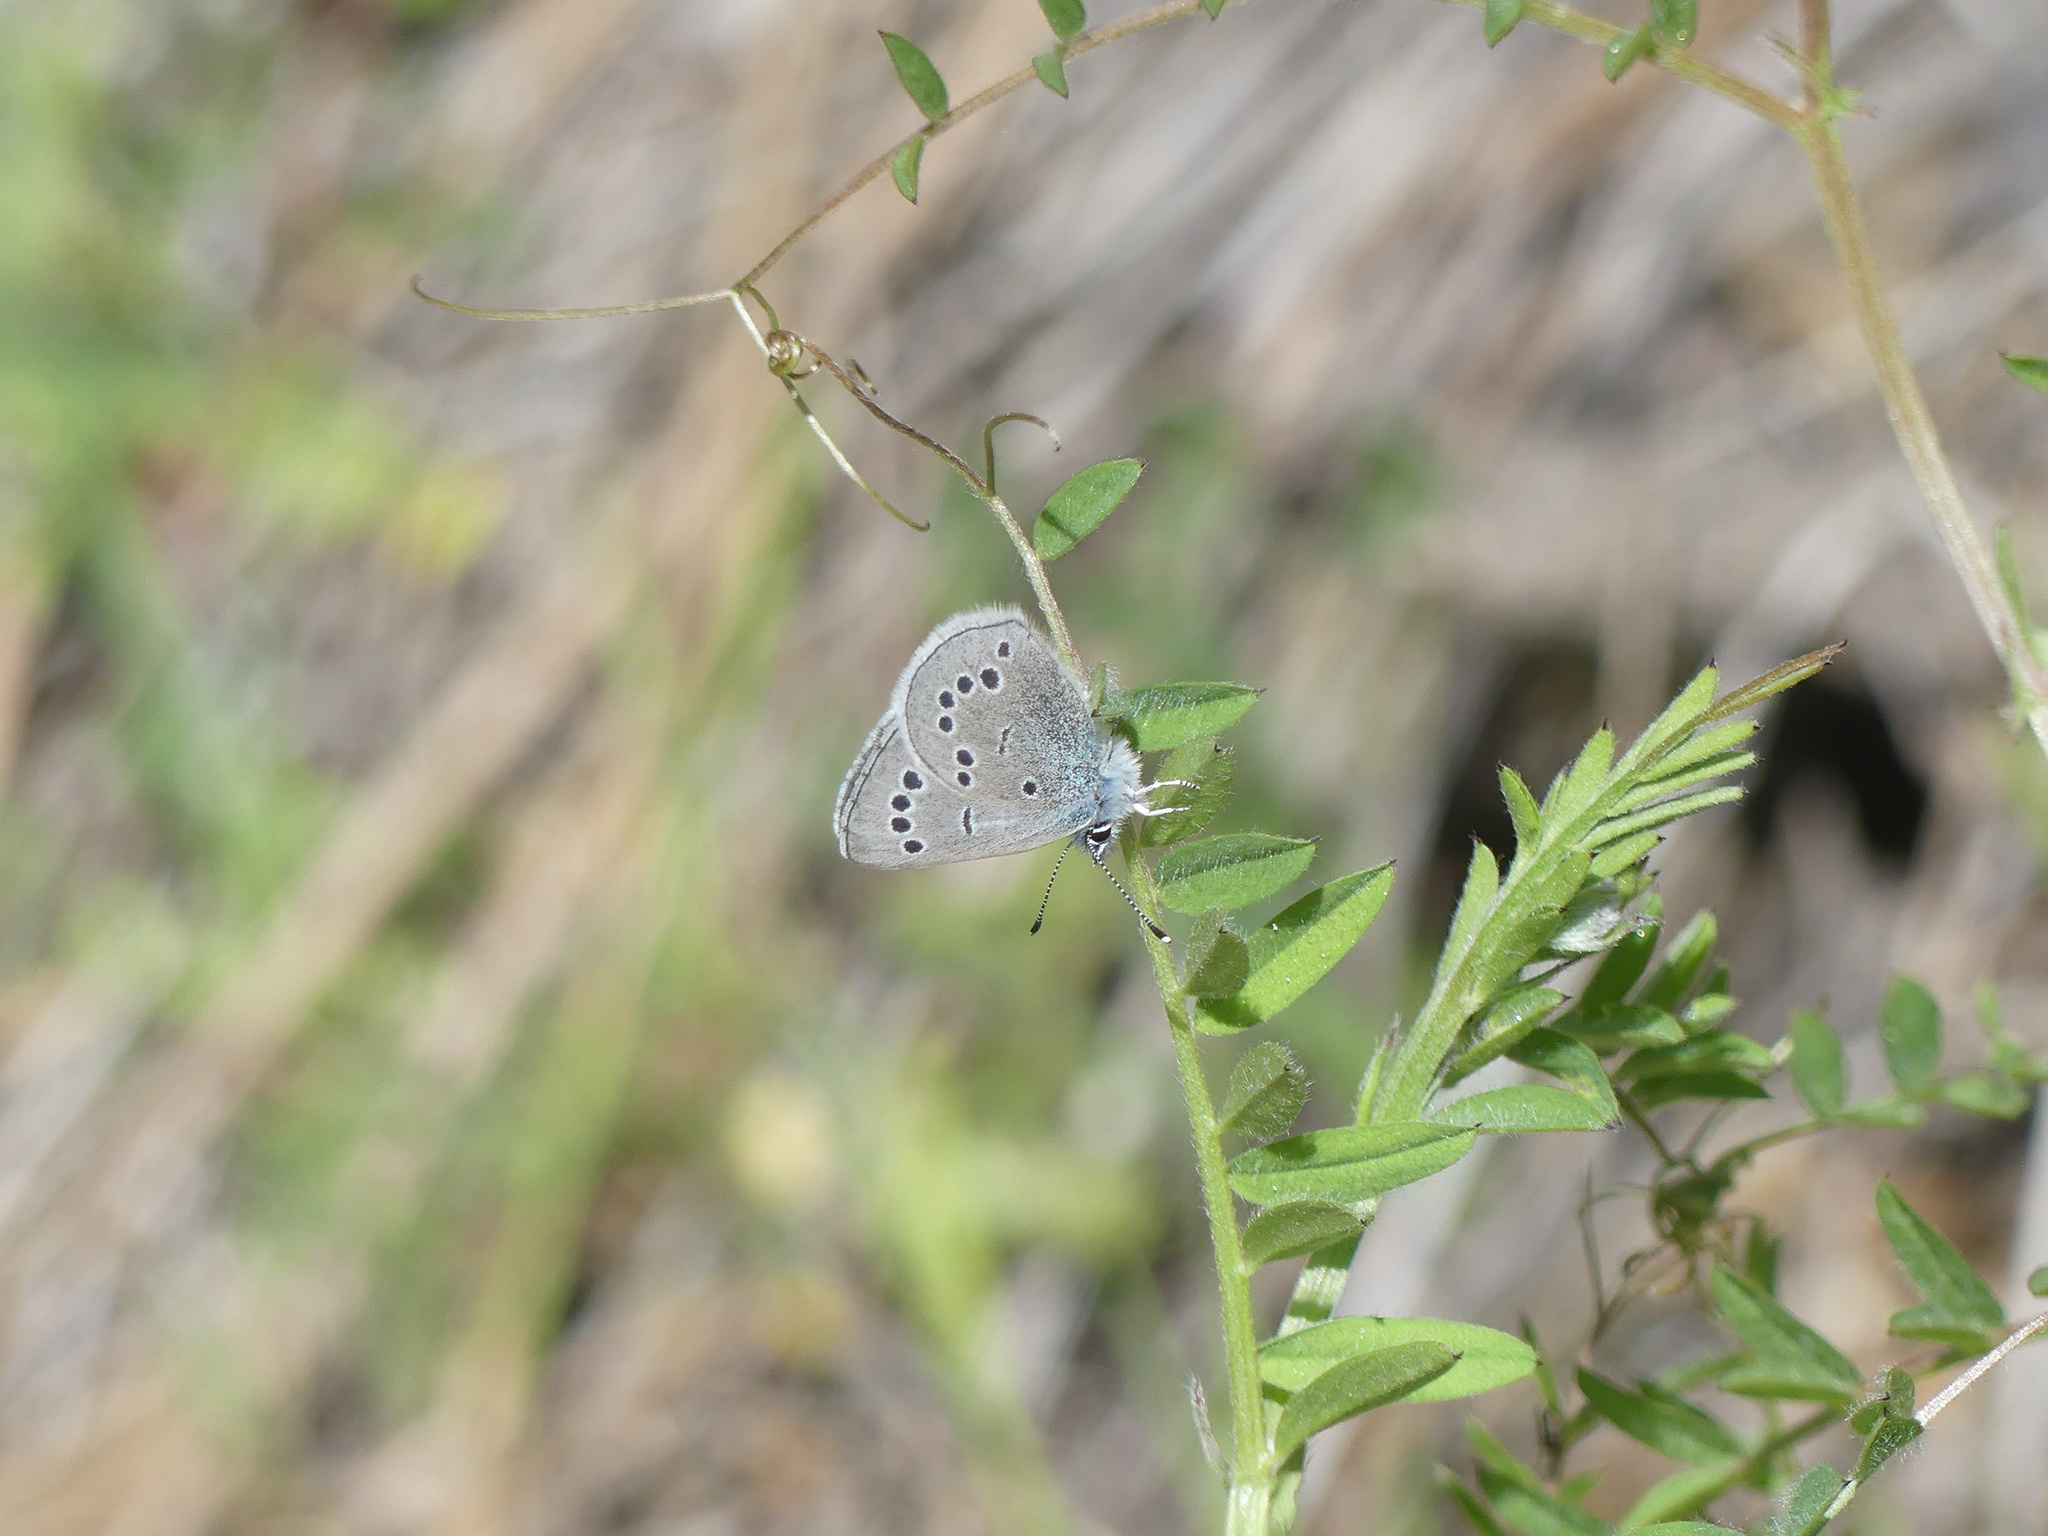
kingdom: Animalia
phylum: Arthropoda
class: Insecta
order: Lepidoptera
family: Lycaenidae
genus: Glaucopsyche
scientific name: Glaucopsyche lygdamus
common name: Silvery blue
